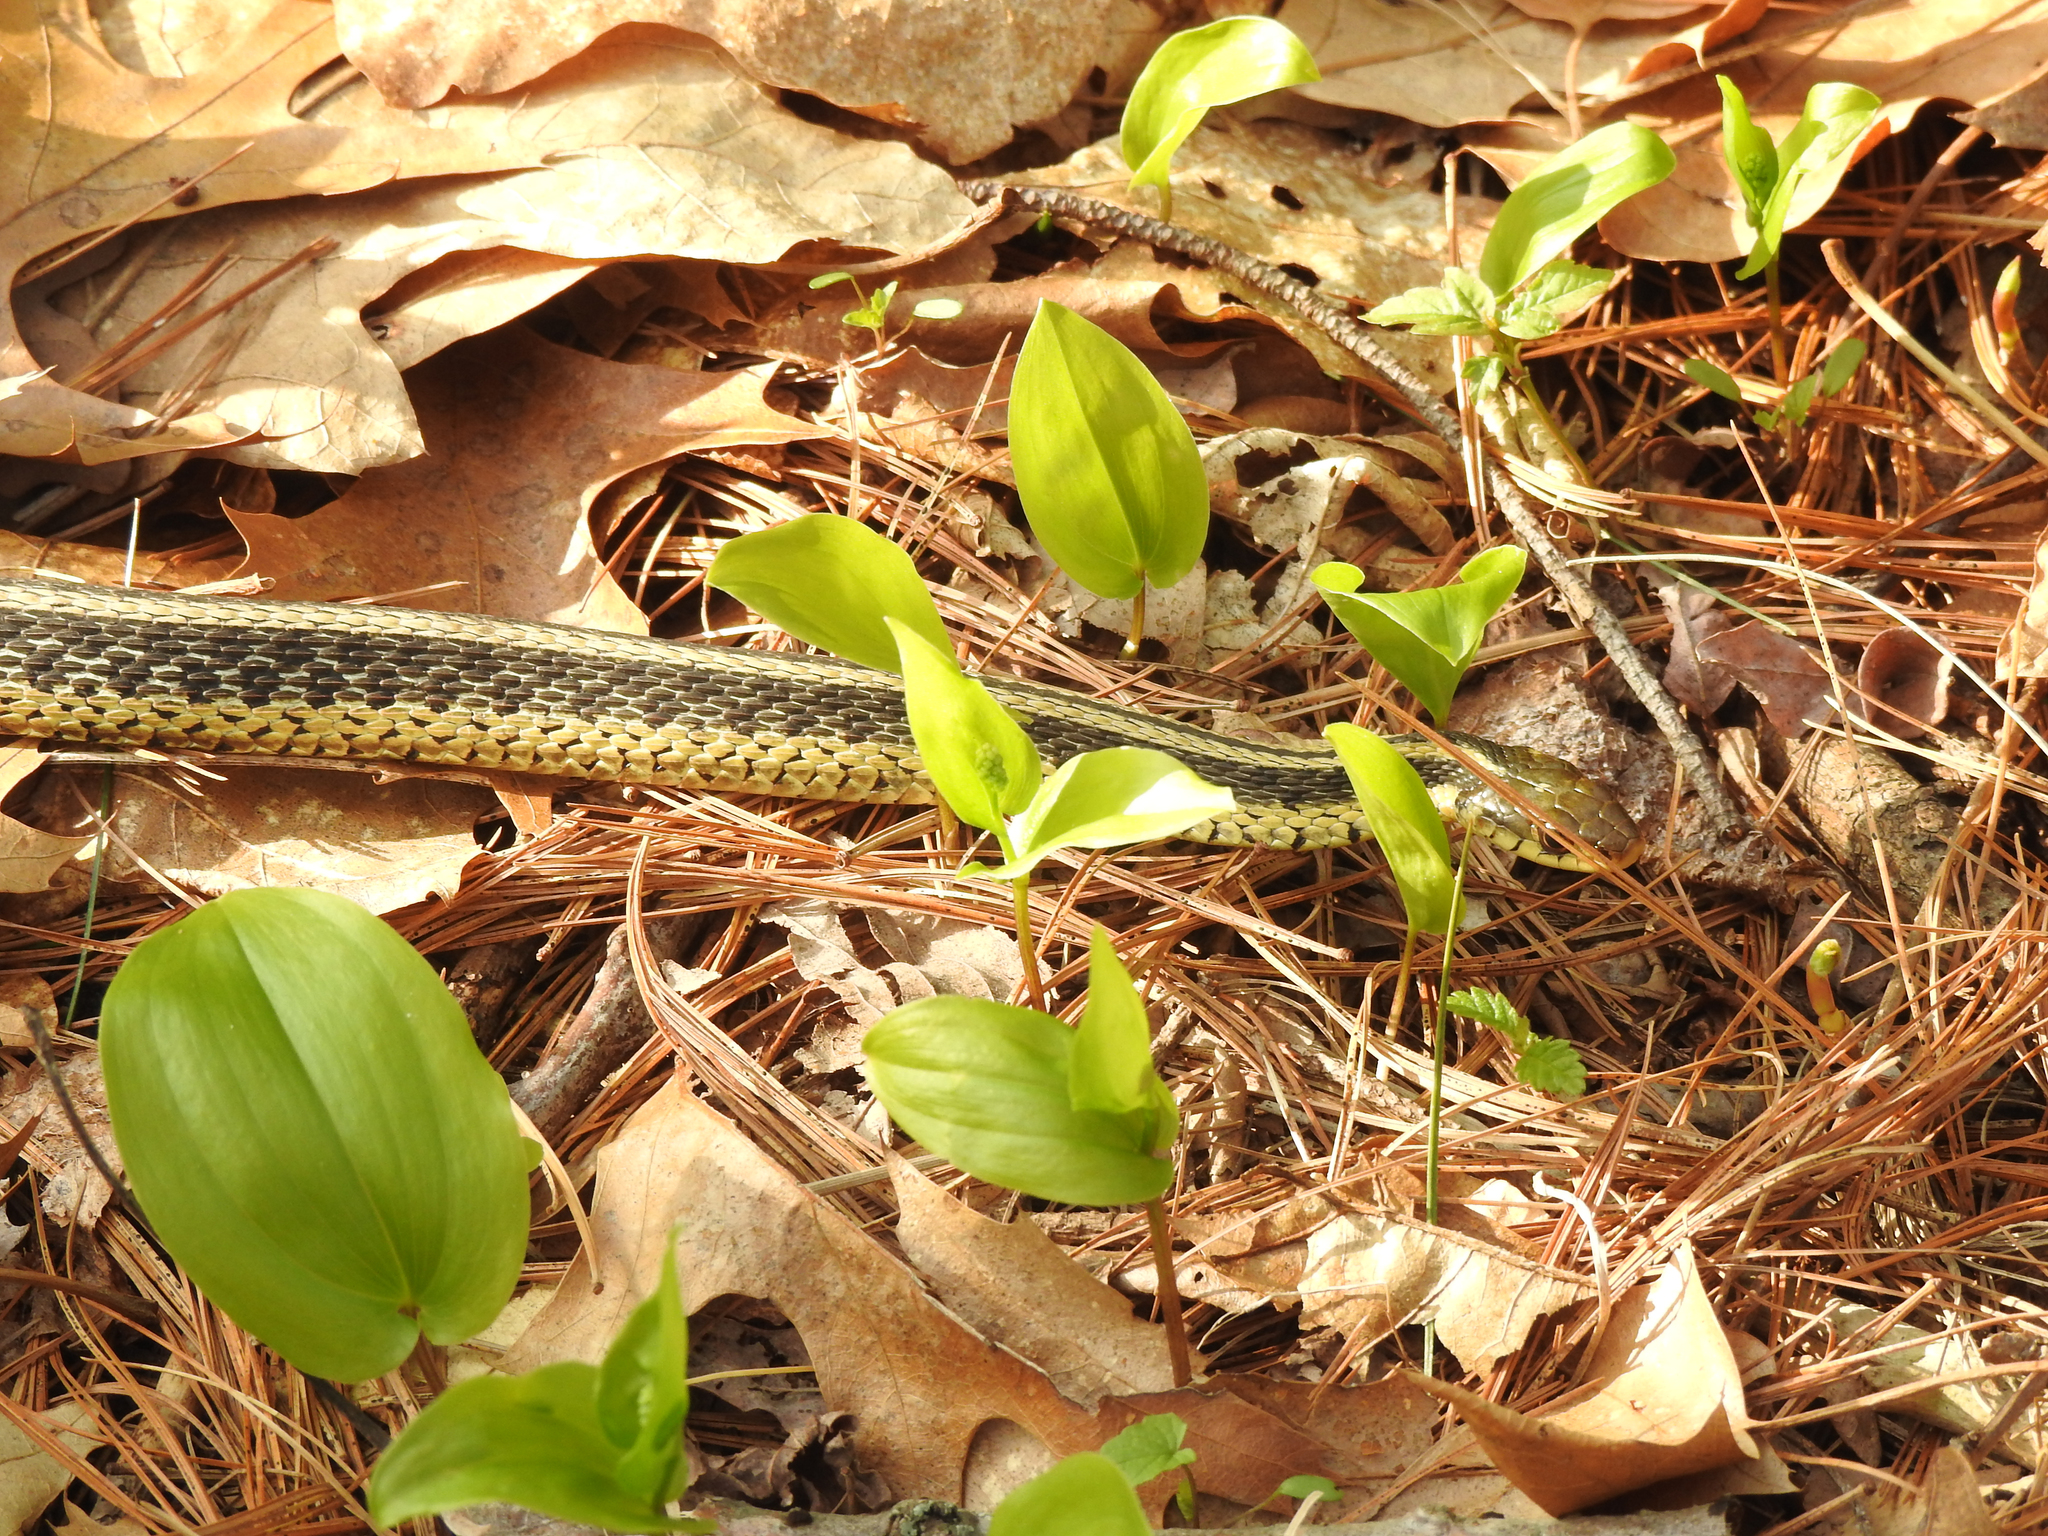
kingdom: Animalia
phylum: Chordata
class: Squamata
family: Colubridae
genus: Thamnophis
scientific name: Thamnophis sirtalis
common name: Common garter snake
